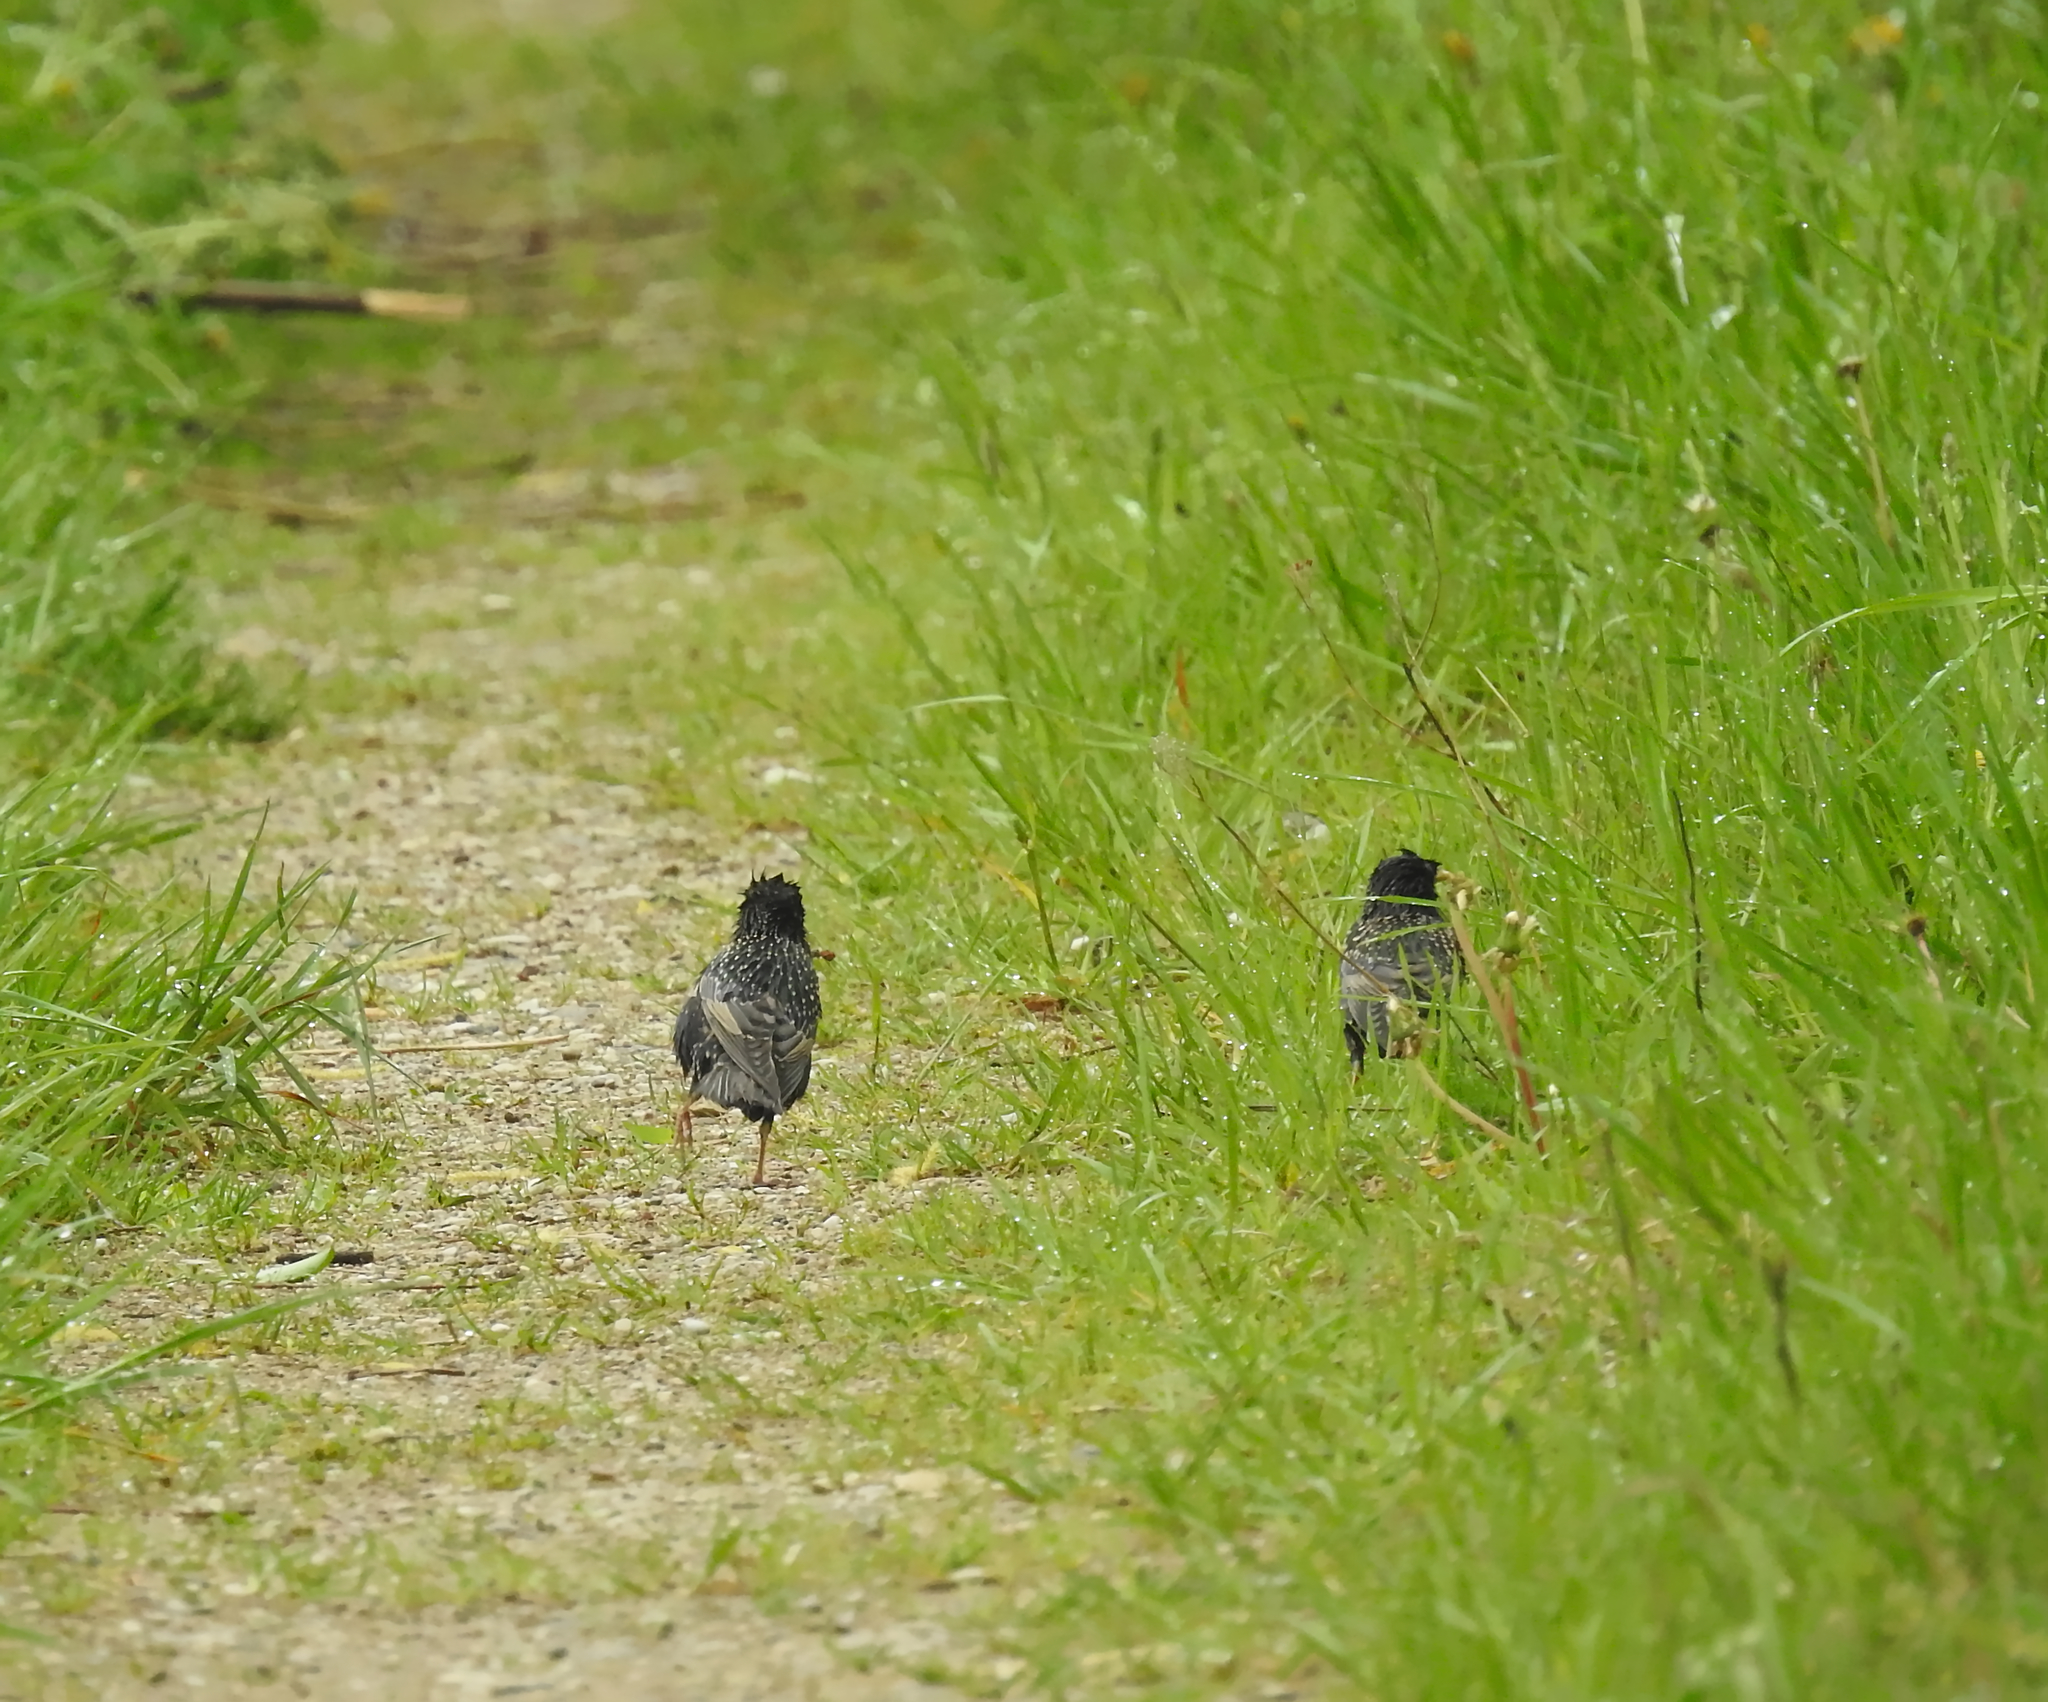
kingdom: Animalia
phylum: Chordata
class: Aves
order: Passeriformes
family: Sturnidae
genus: Sturnus
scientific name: Sturnus vulgaris
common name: Common starling
